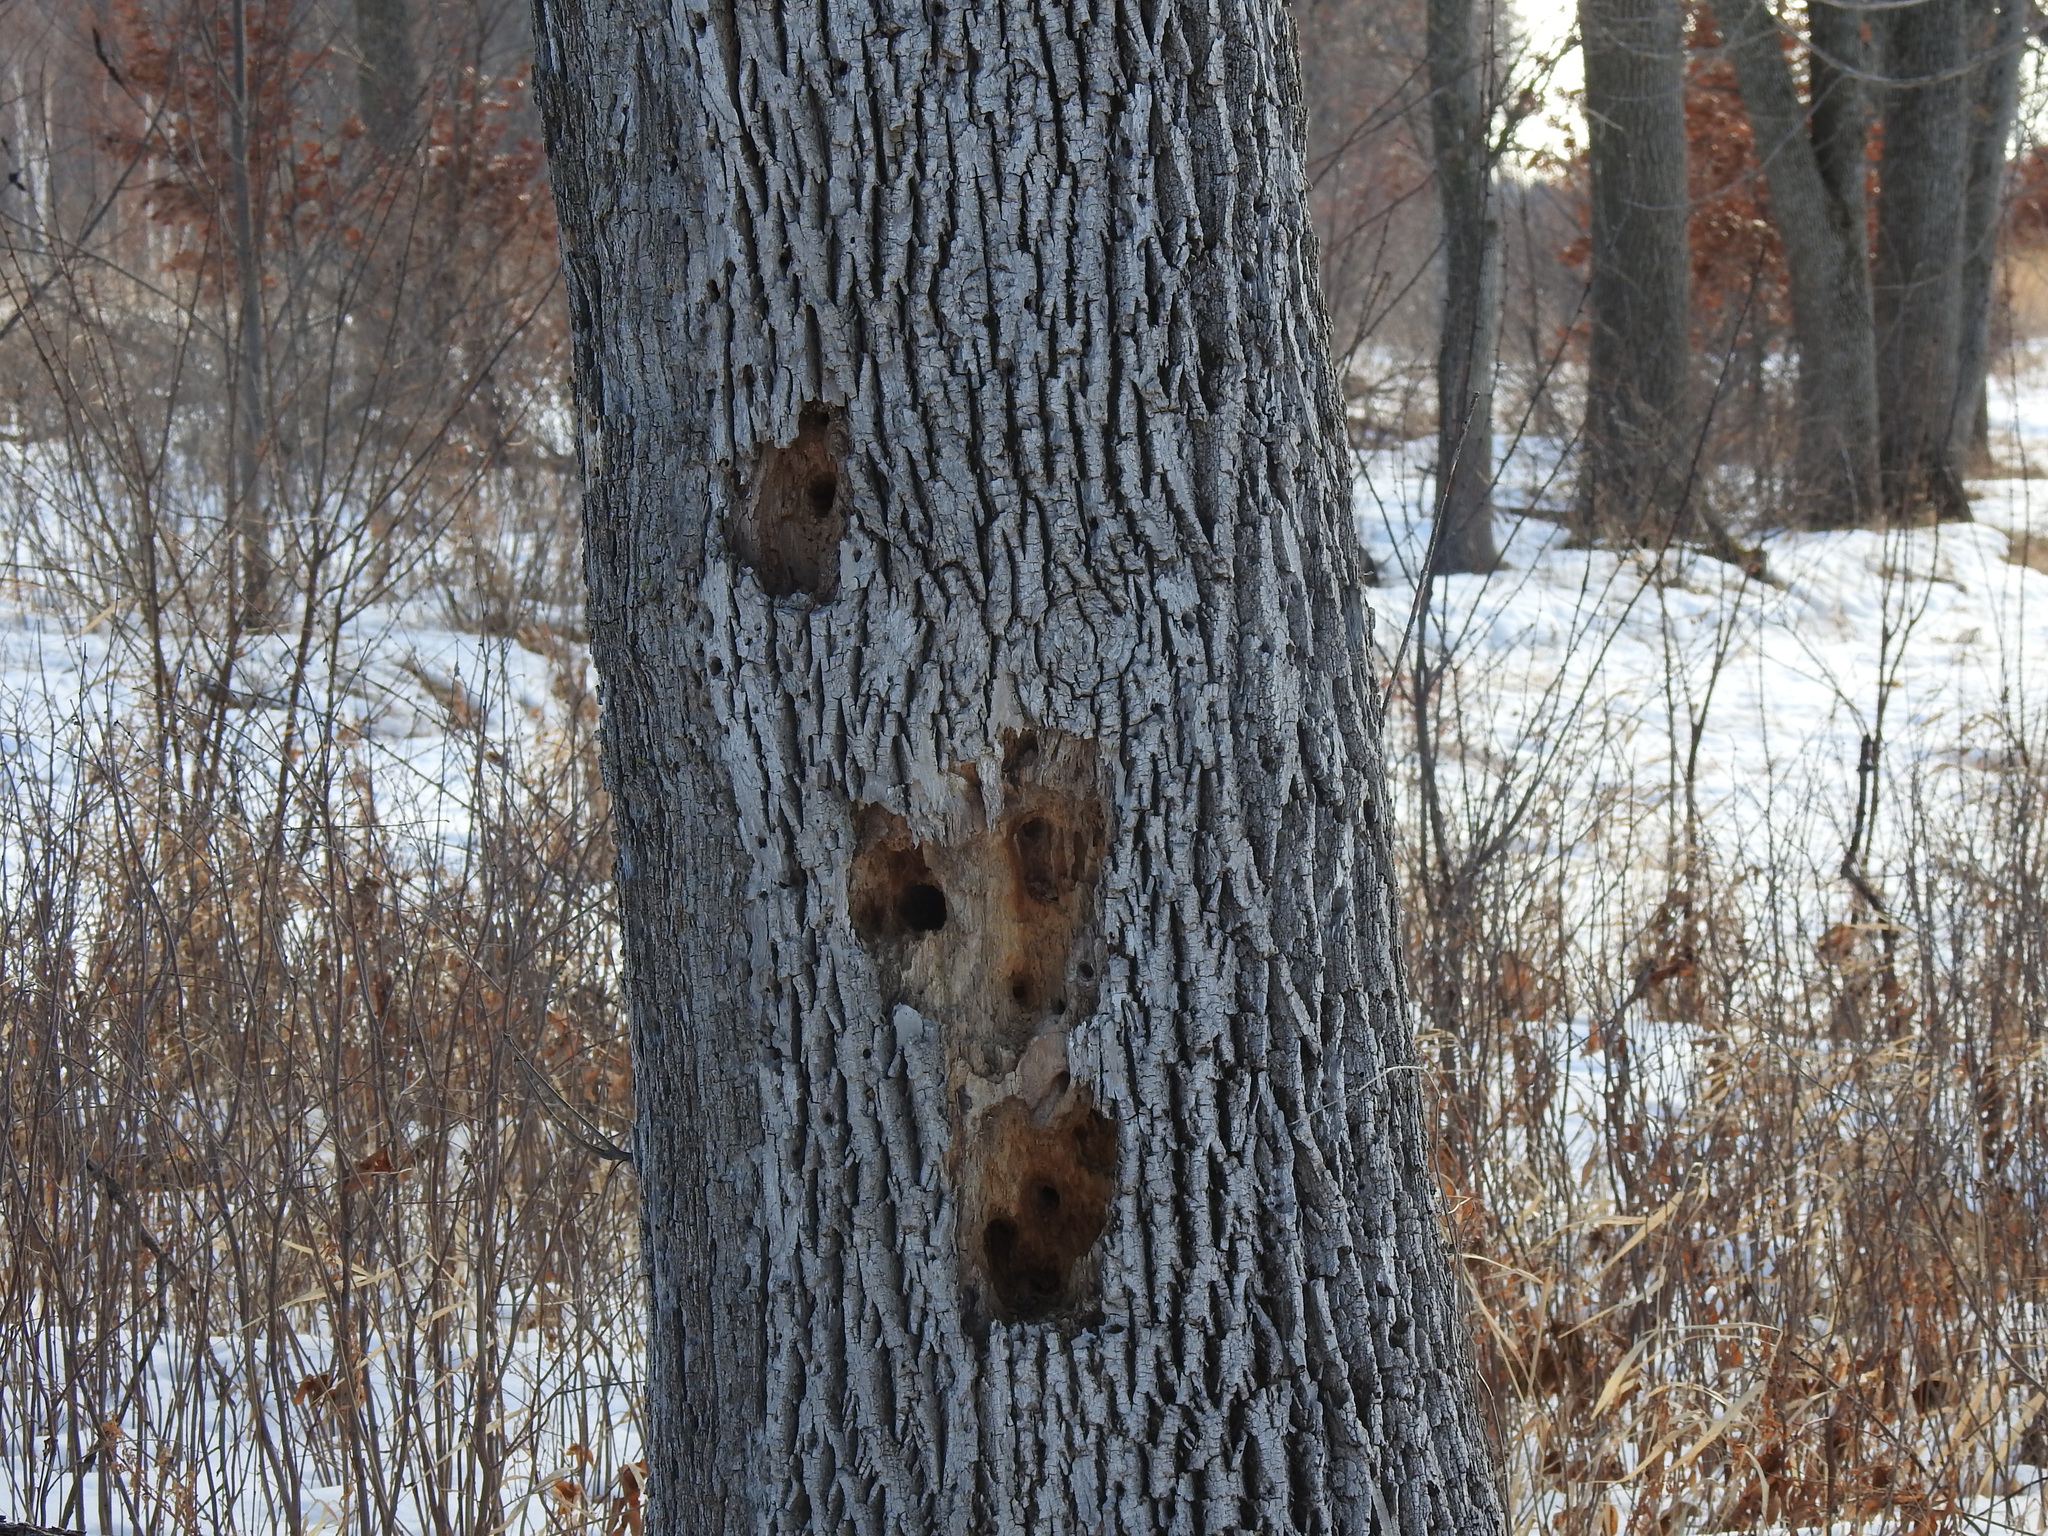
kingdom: Animalia
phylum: Chordata
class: Aves
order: Piciformes
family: Picidae
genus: Melanerpes
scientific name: Melanerpes erythrocephalus
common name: Red-headed woodpecker
